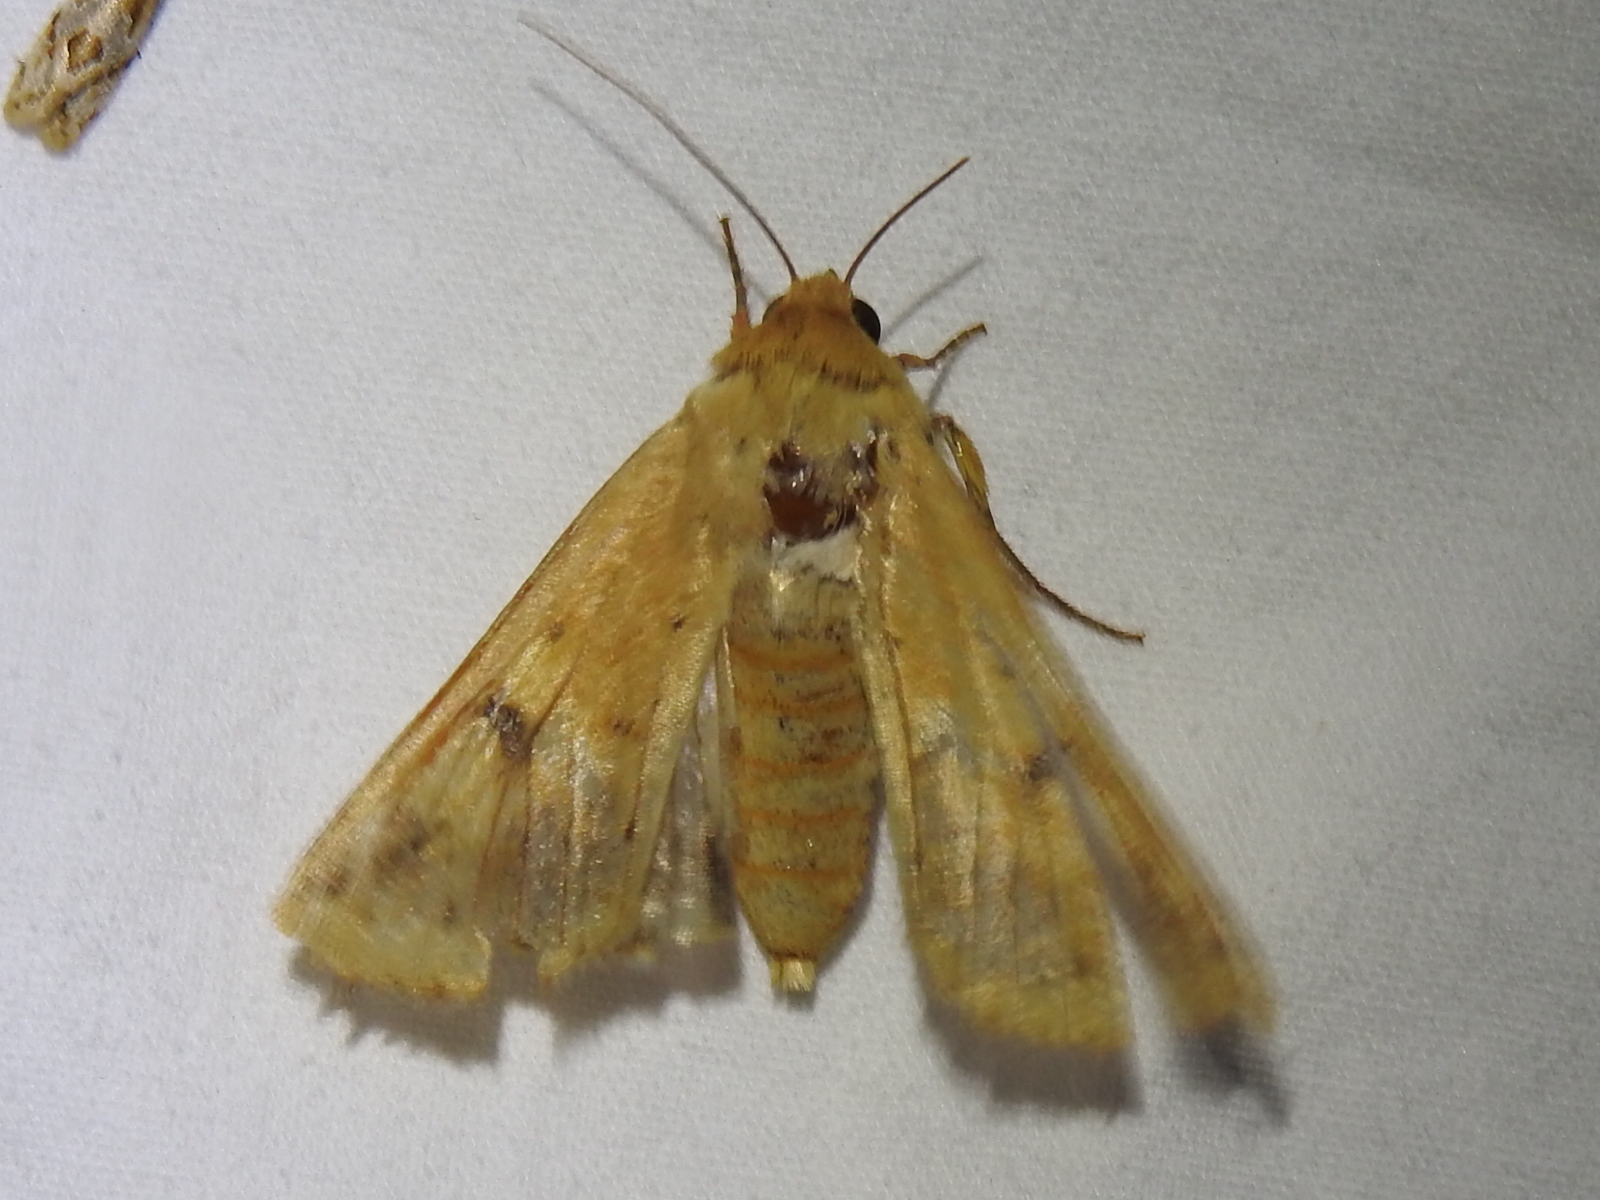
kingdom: Animalia
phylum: Arthropoda
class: Insecta
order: Lepidoptera
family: Noctuidae
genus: Helicoverpa
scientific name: Helicoverpa zea
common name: Bollworm
